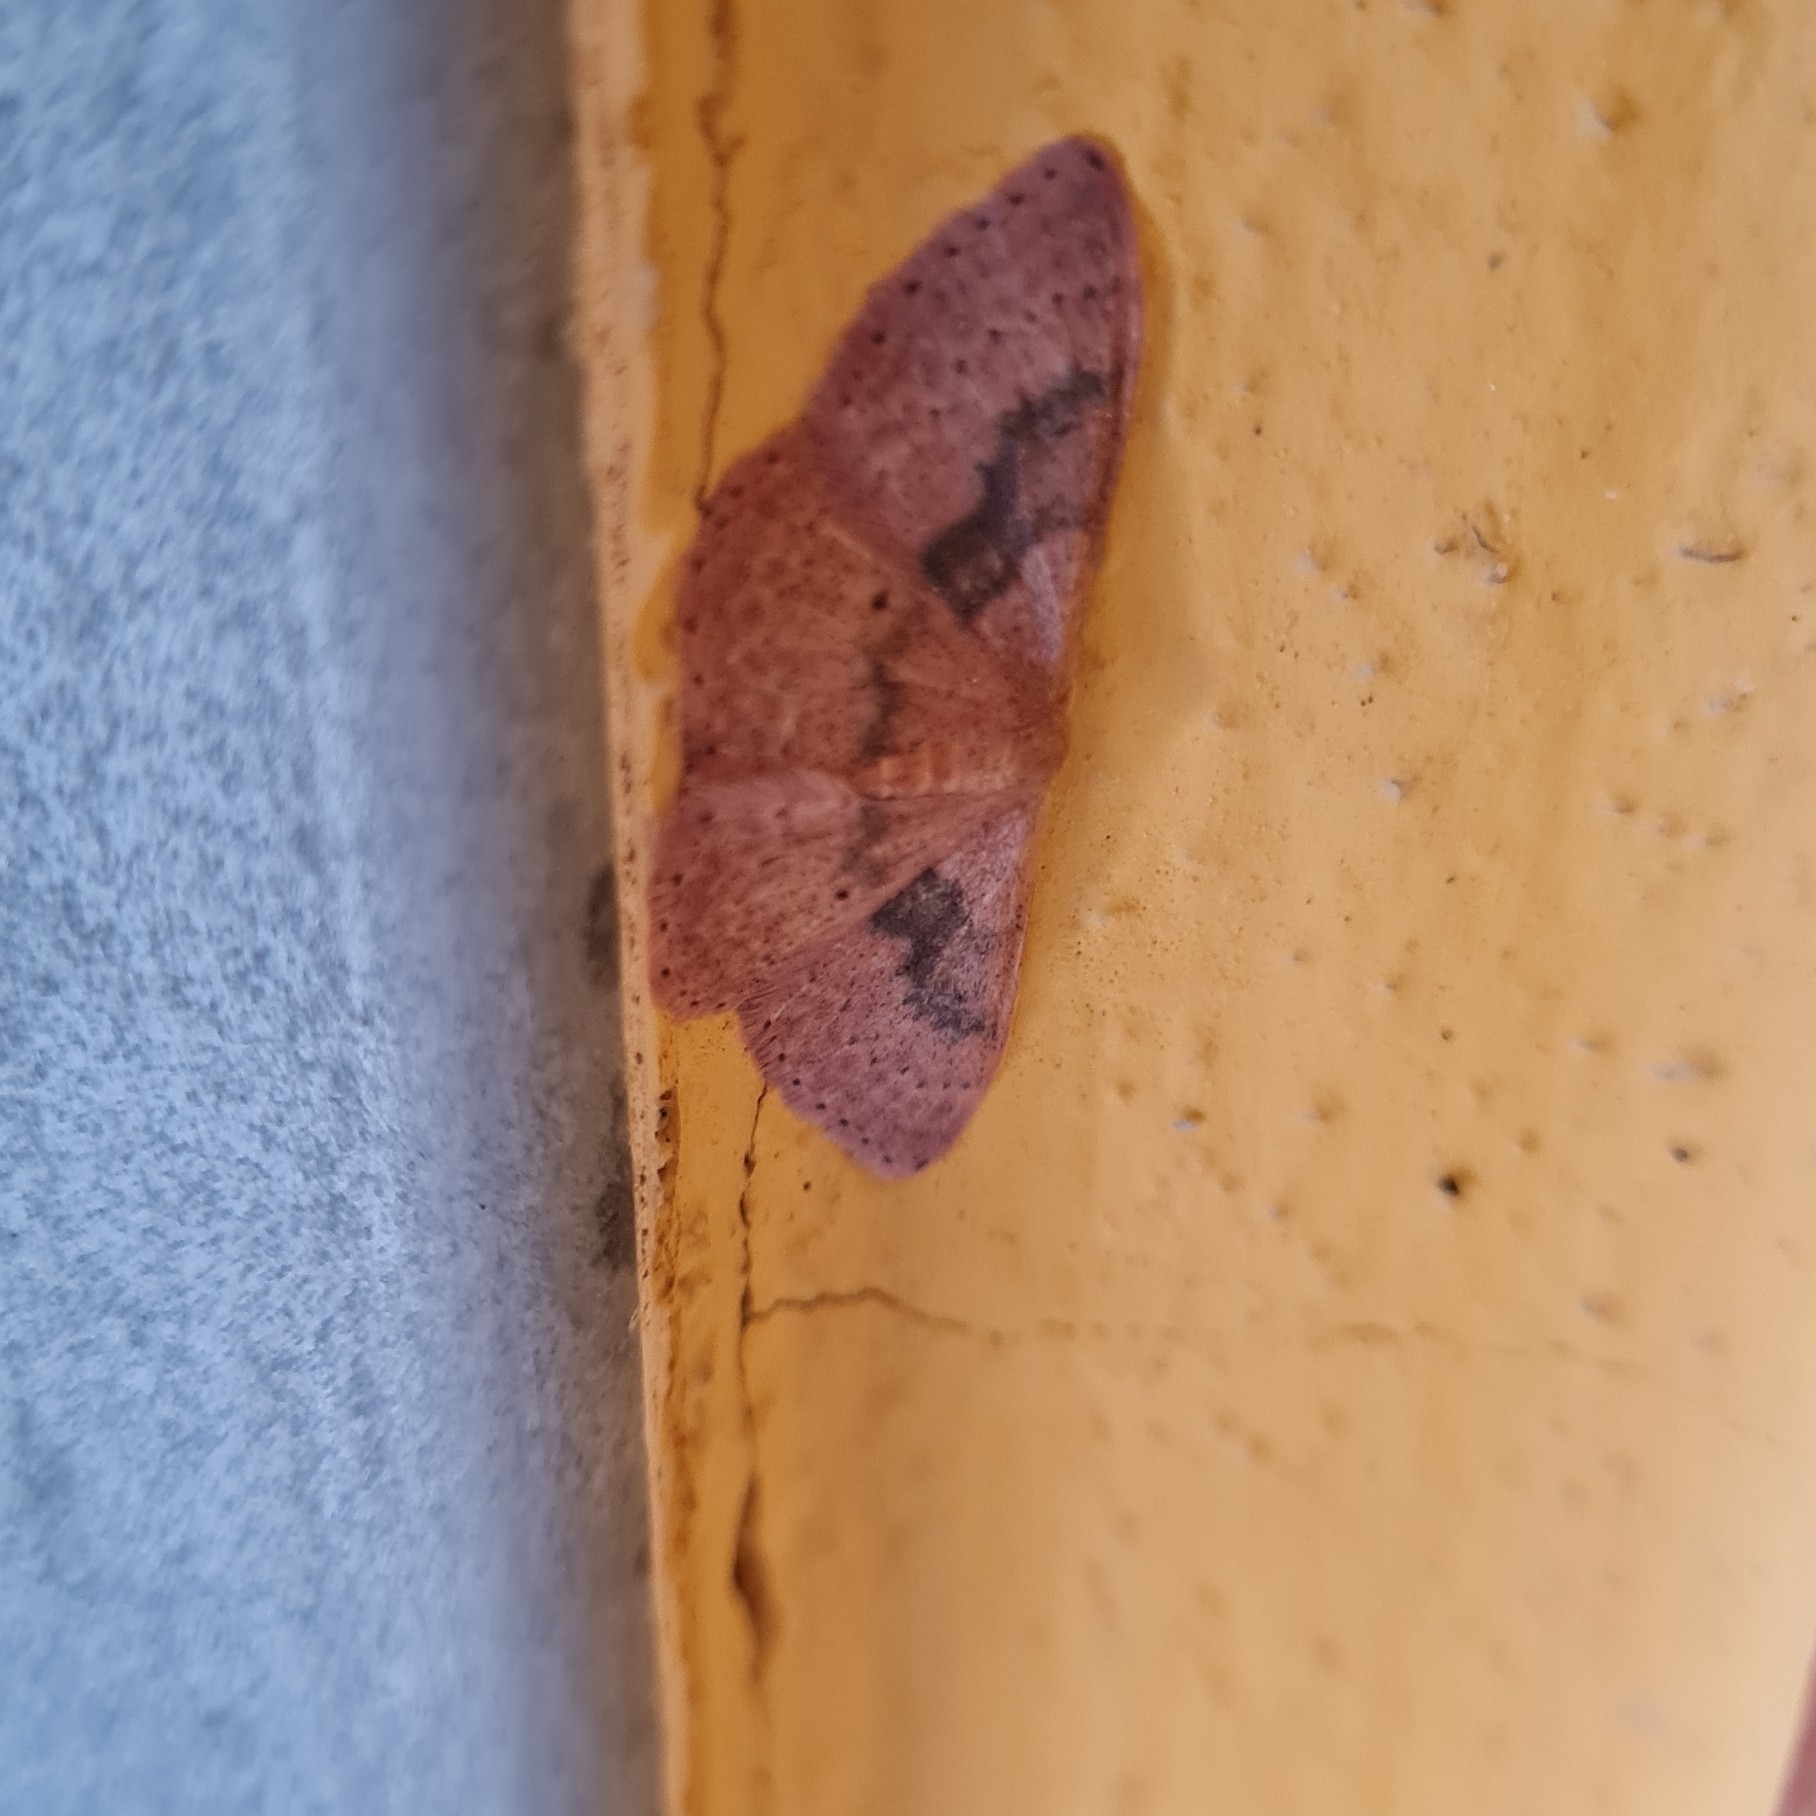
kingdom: Animalia
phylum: Arthropoda
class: Insecta
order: Lepidoptera
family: Geometridae
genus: Idaea
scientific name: Idaea eugeniata
